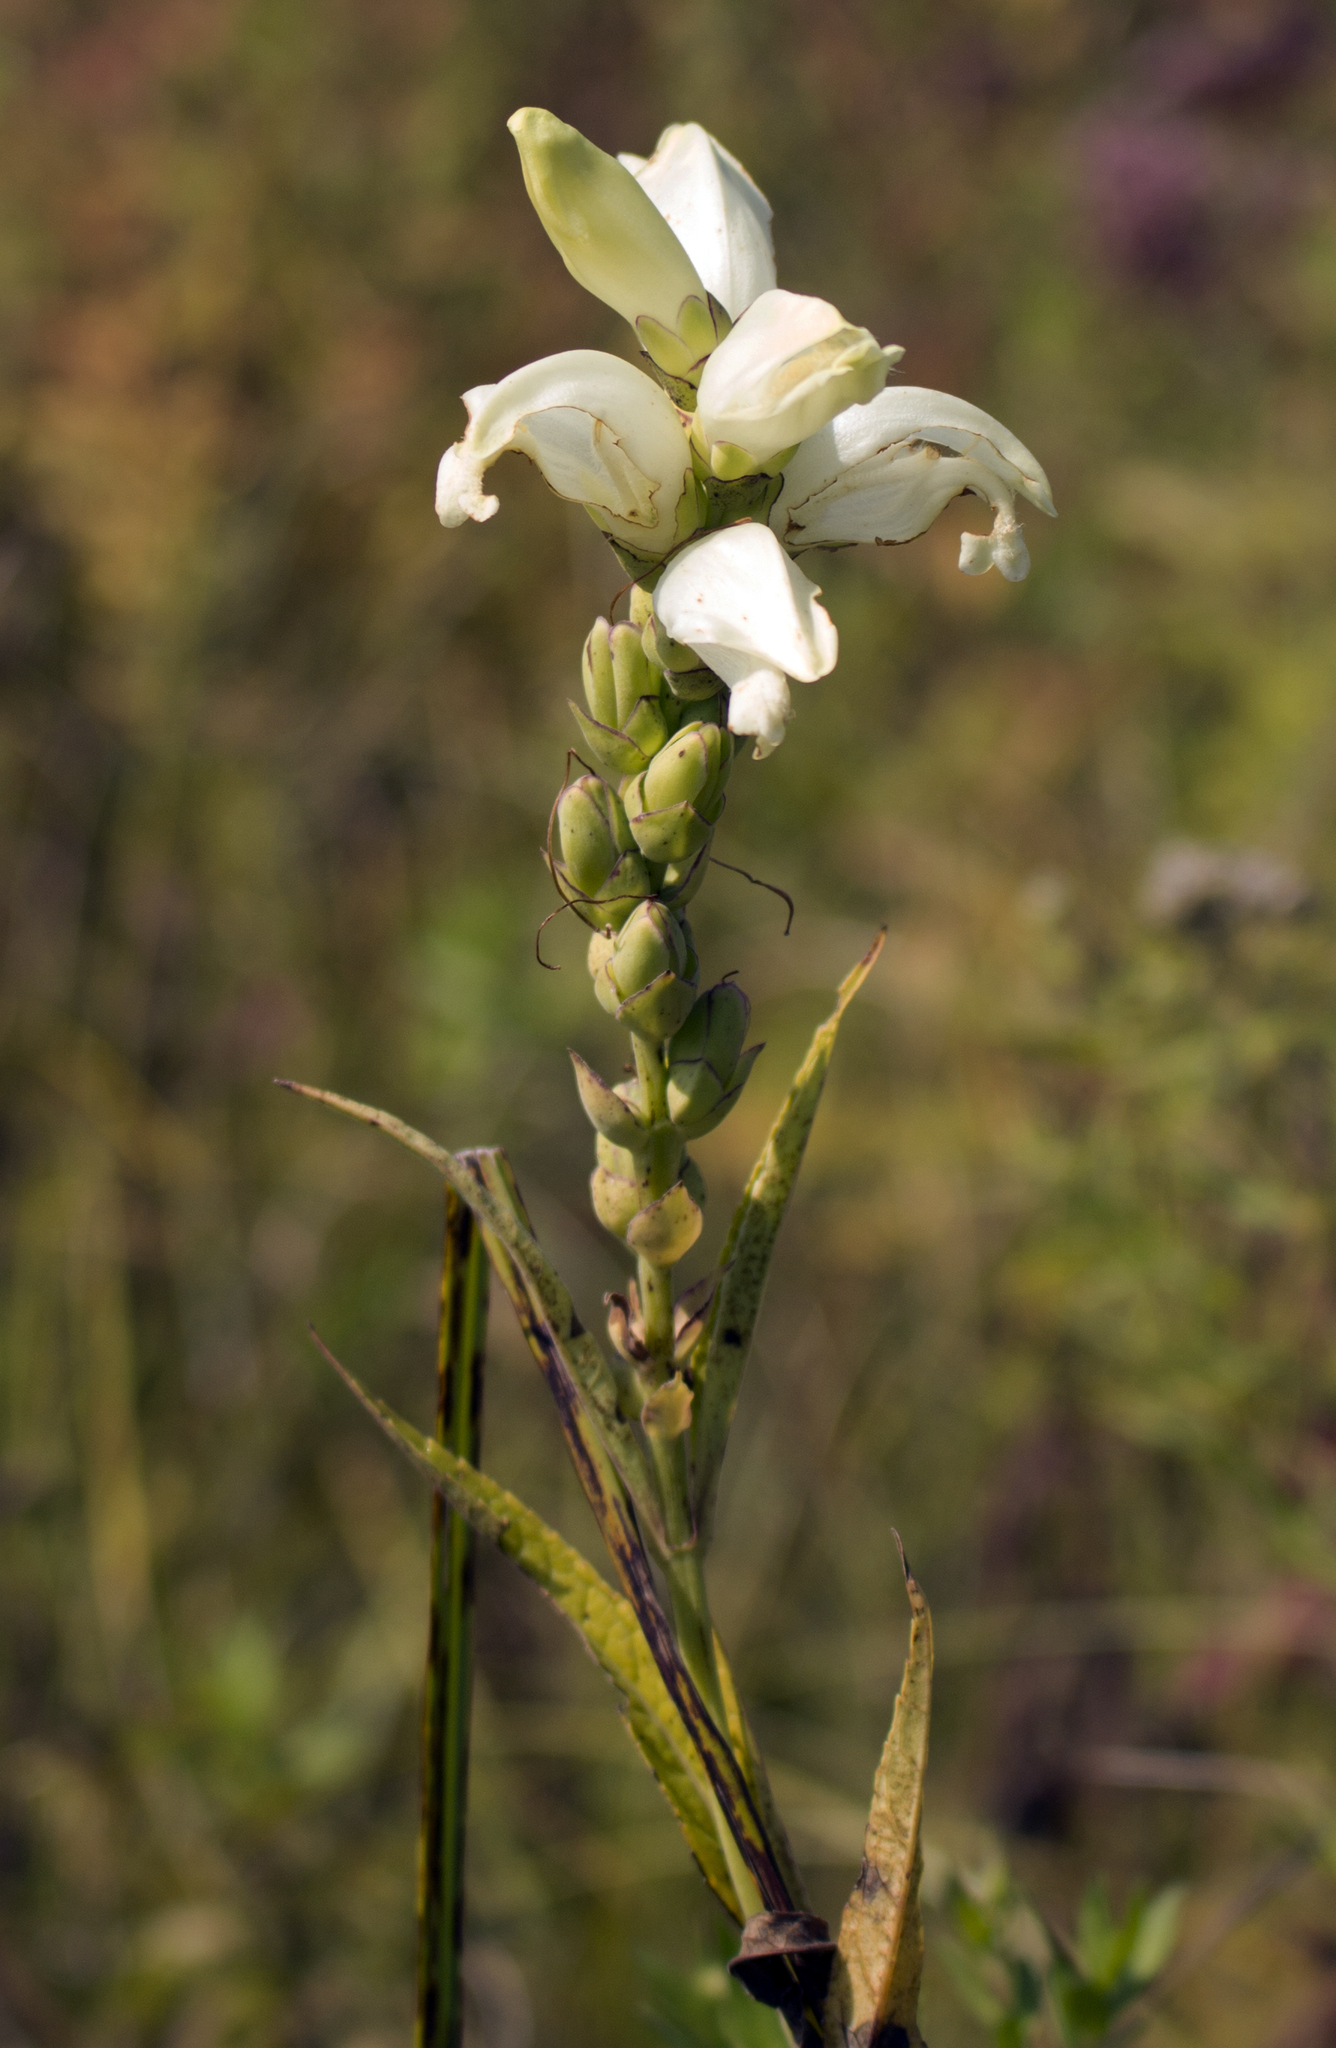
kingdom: Plantae
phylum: Tracheophyta
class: Magnoliopsida
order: Lamiales
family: Plantaginaceae
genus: Chelone
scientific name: Chelone glabra
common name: Snakehead
